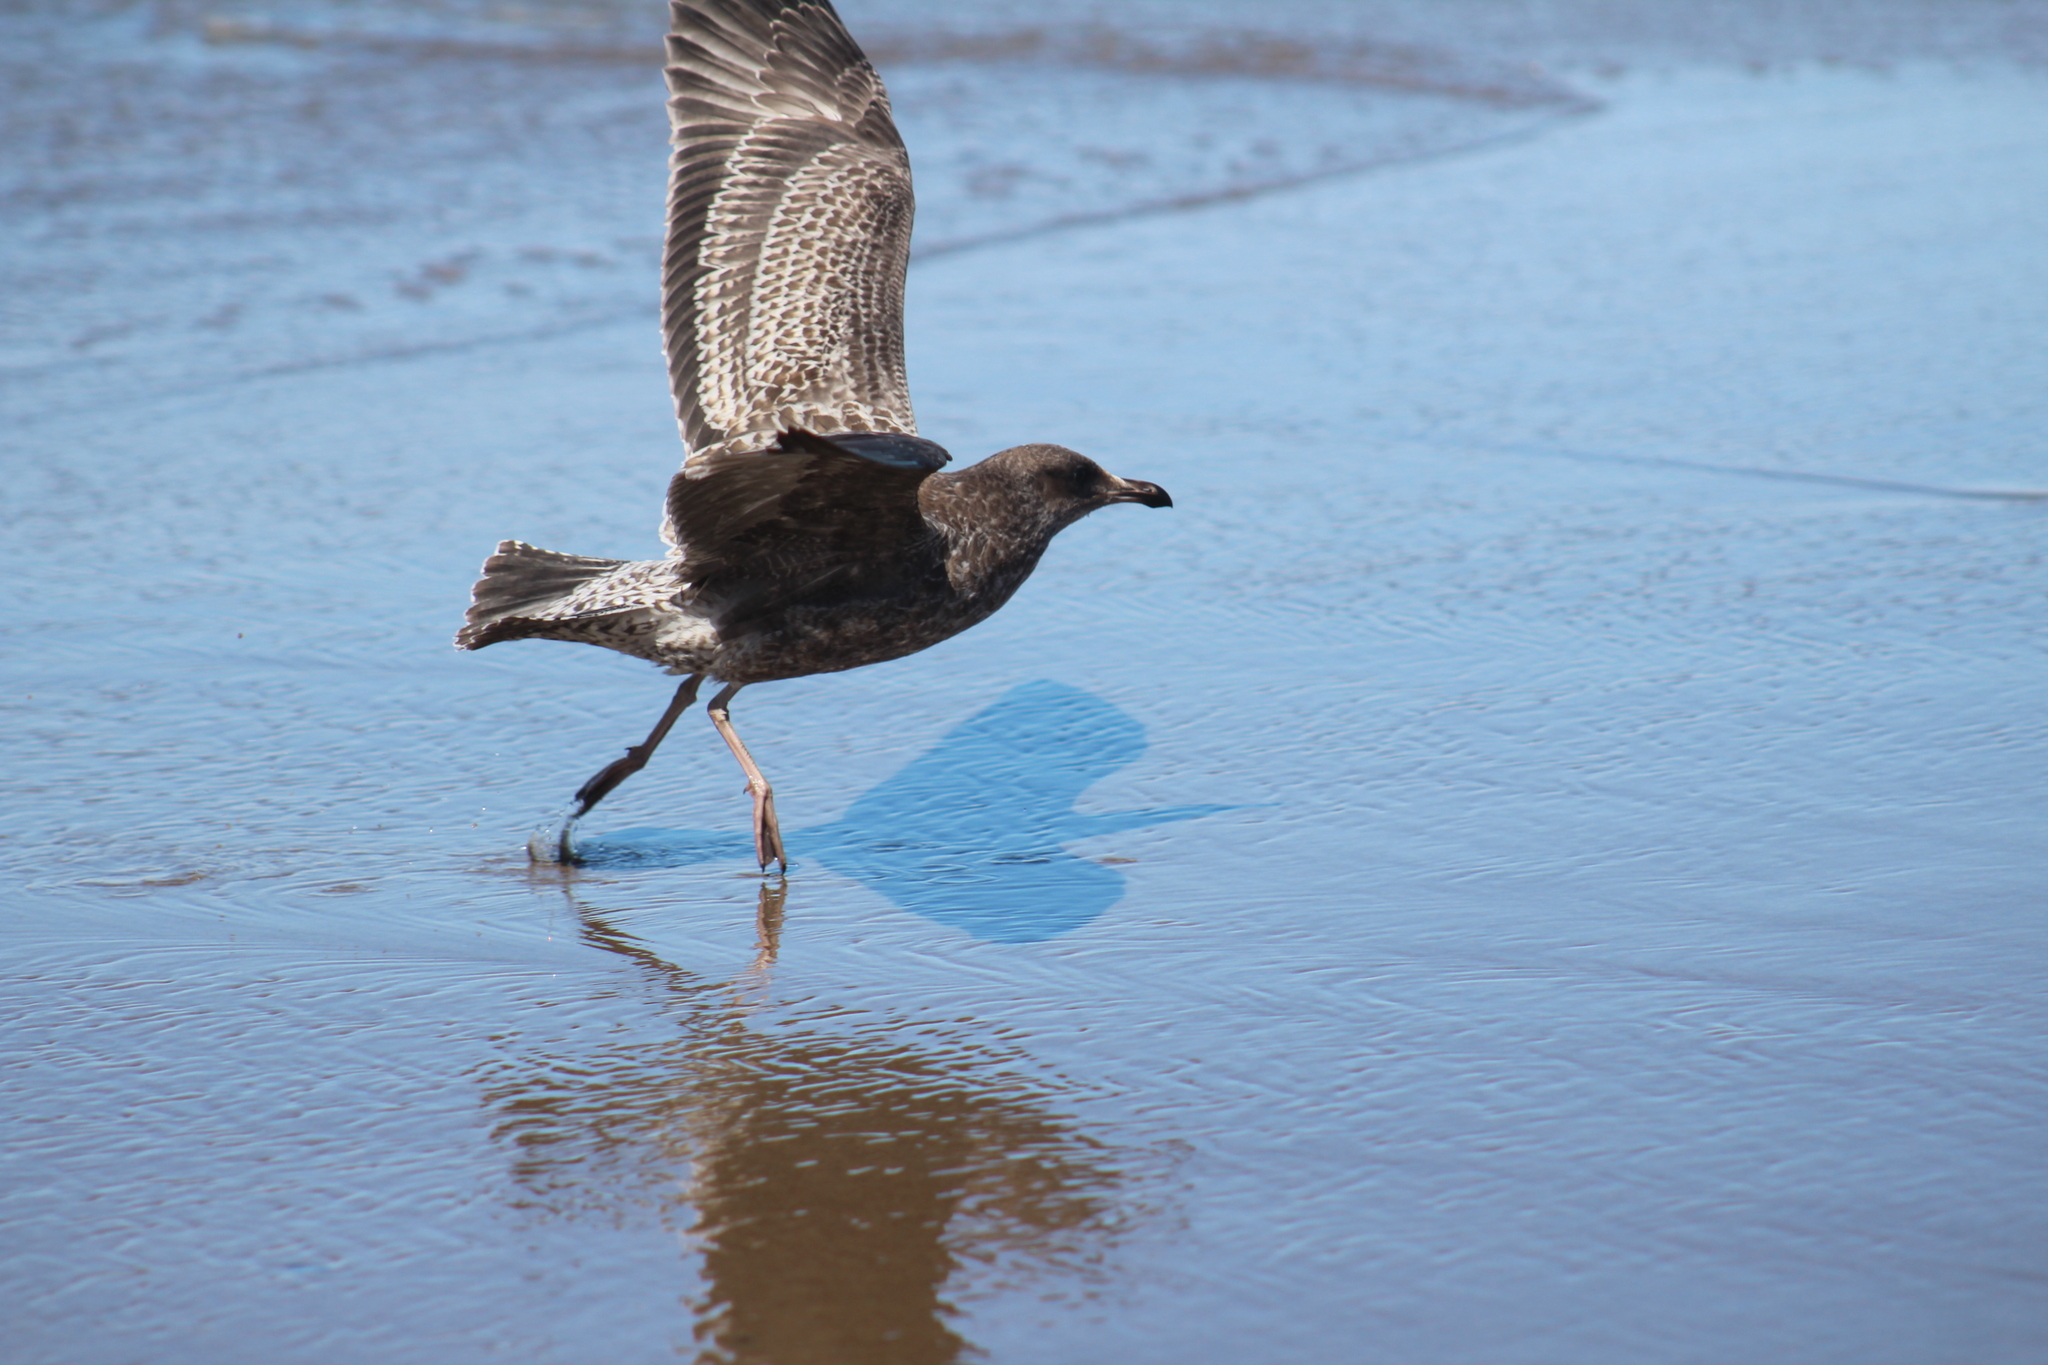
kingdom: Animalia
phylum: Chordata
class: Aves
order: Charadriiformes
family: Laridae
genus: Larus
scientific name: Larus occidentalis
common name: Western gull
